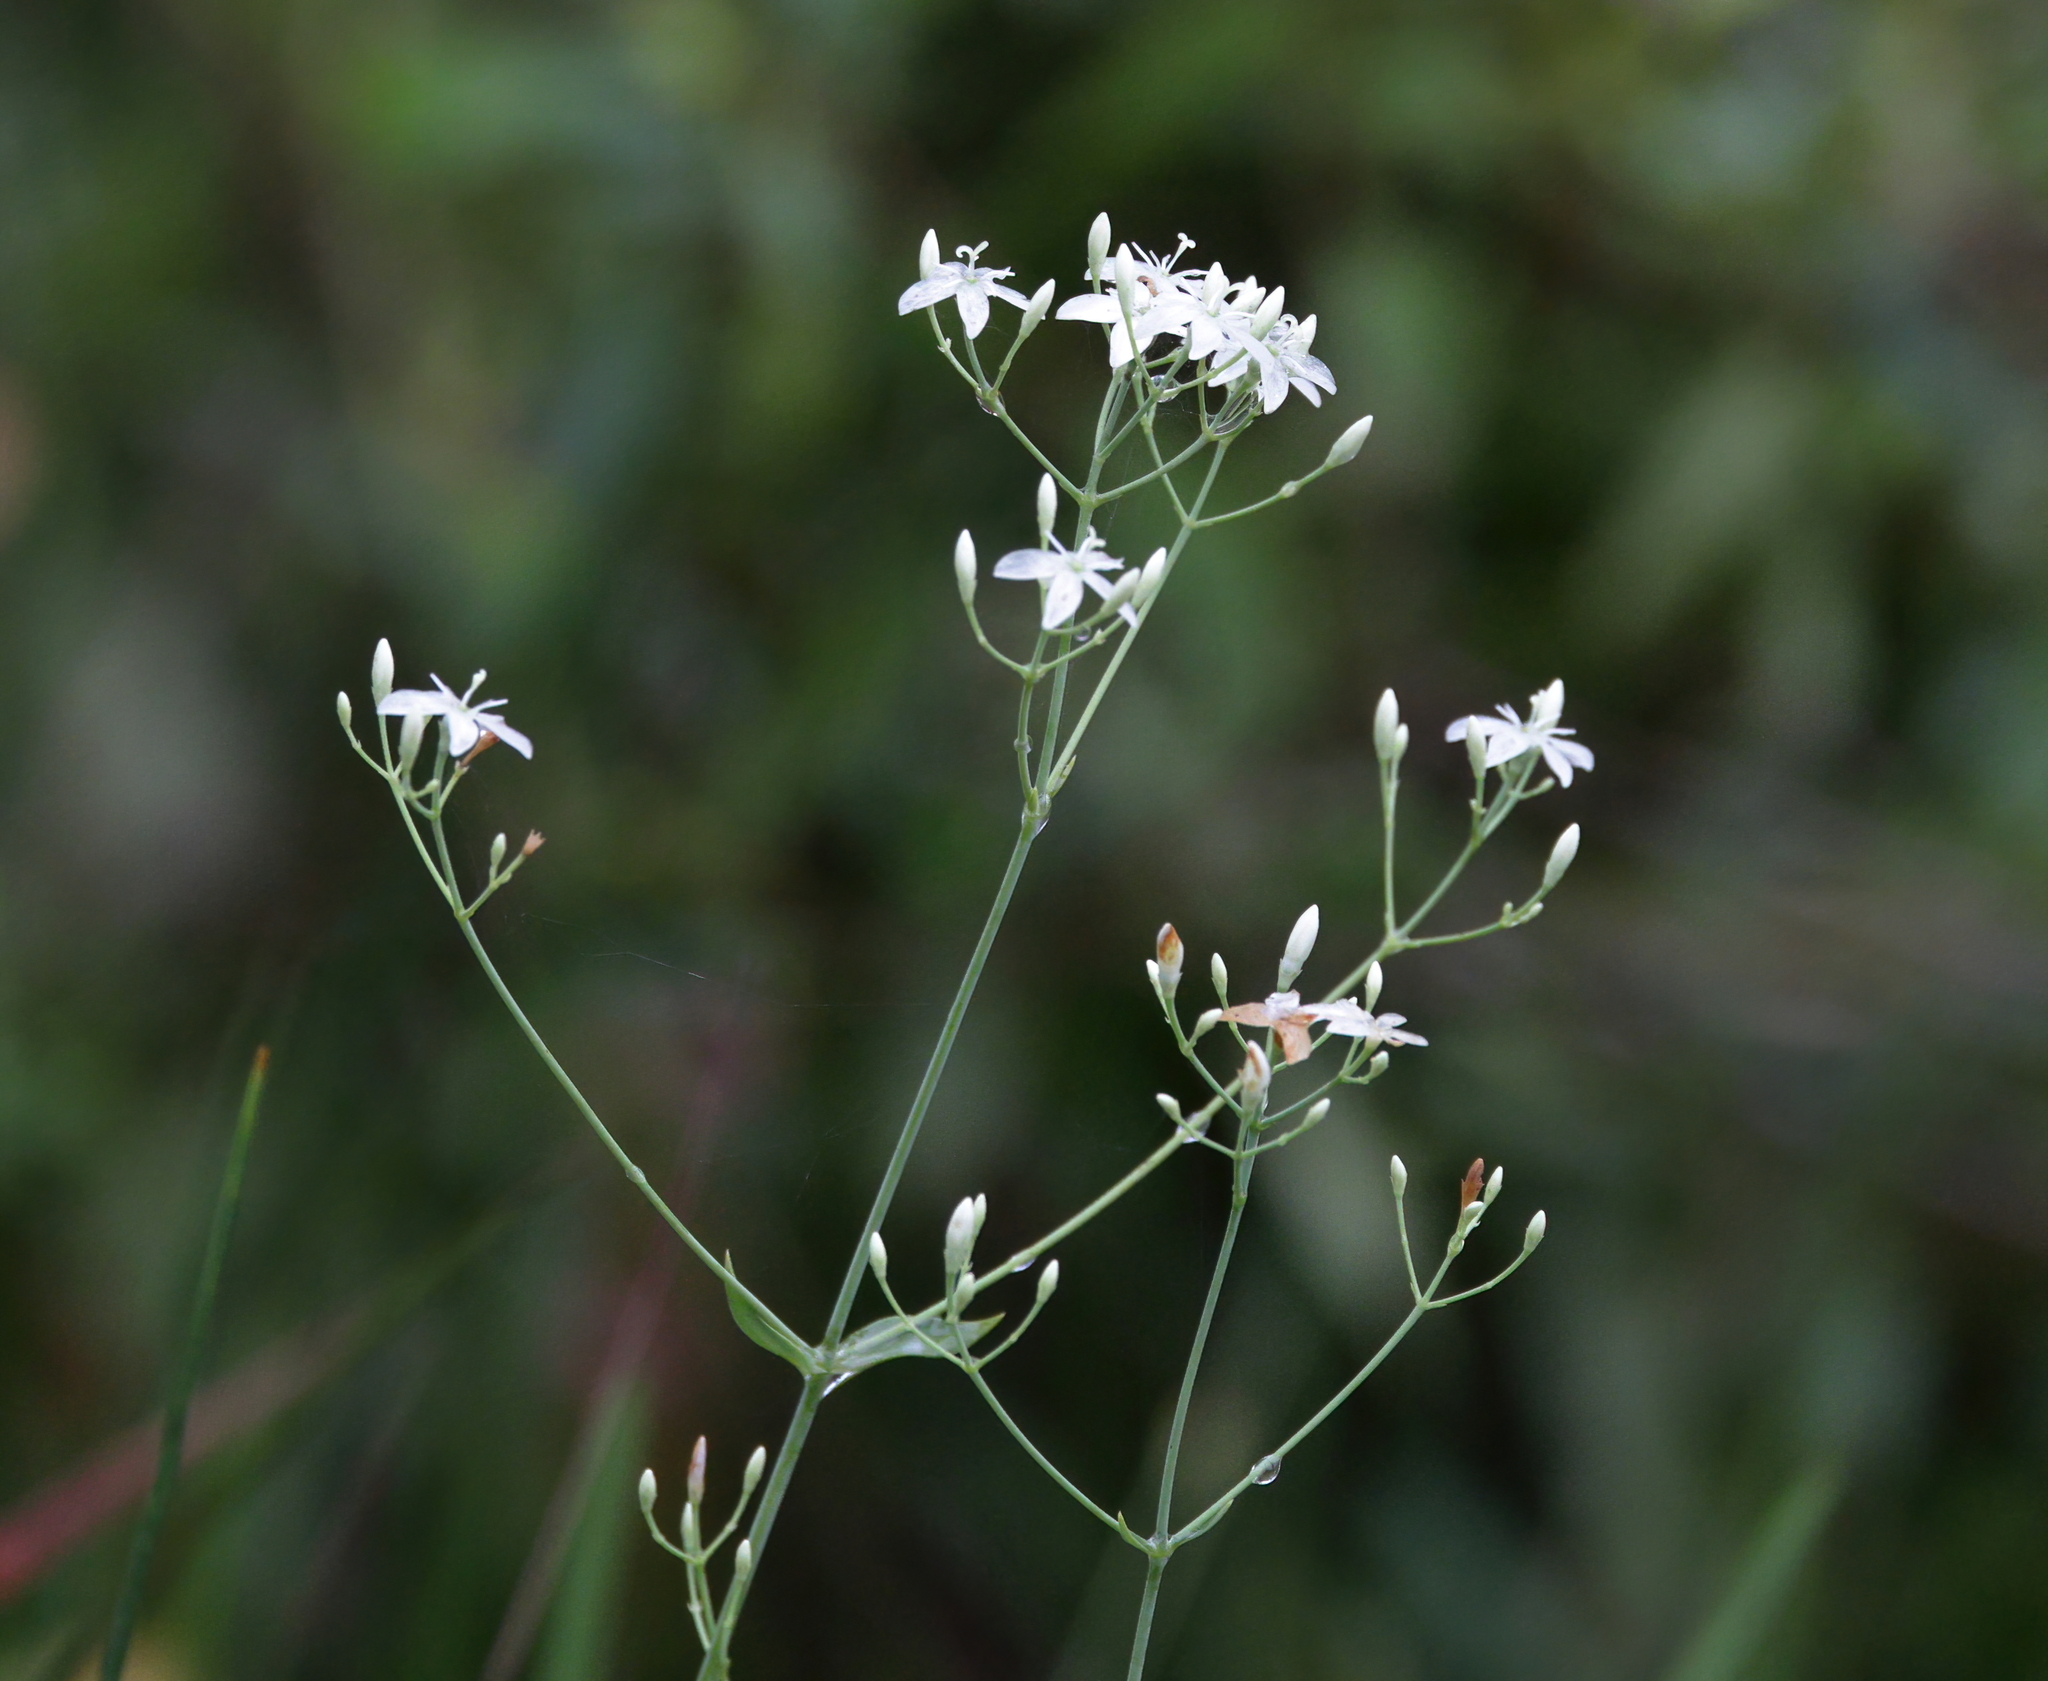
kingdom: Plantae
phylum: Tracheophyta
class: Magnoliopsida
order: Gentianales
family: Gentianaceae
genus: Sabatia
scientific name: Sabatia macrophylla
